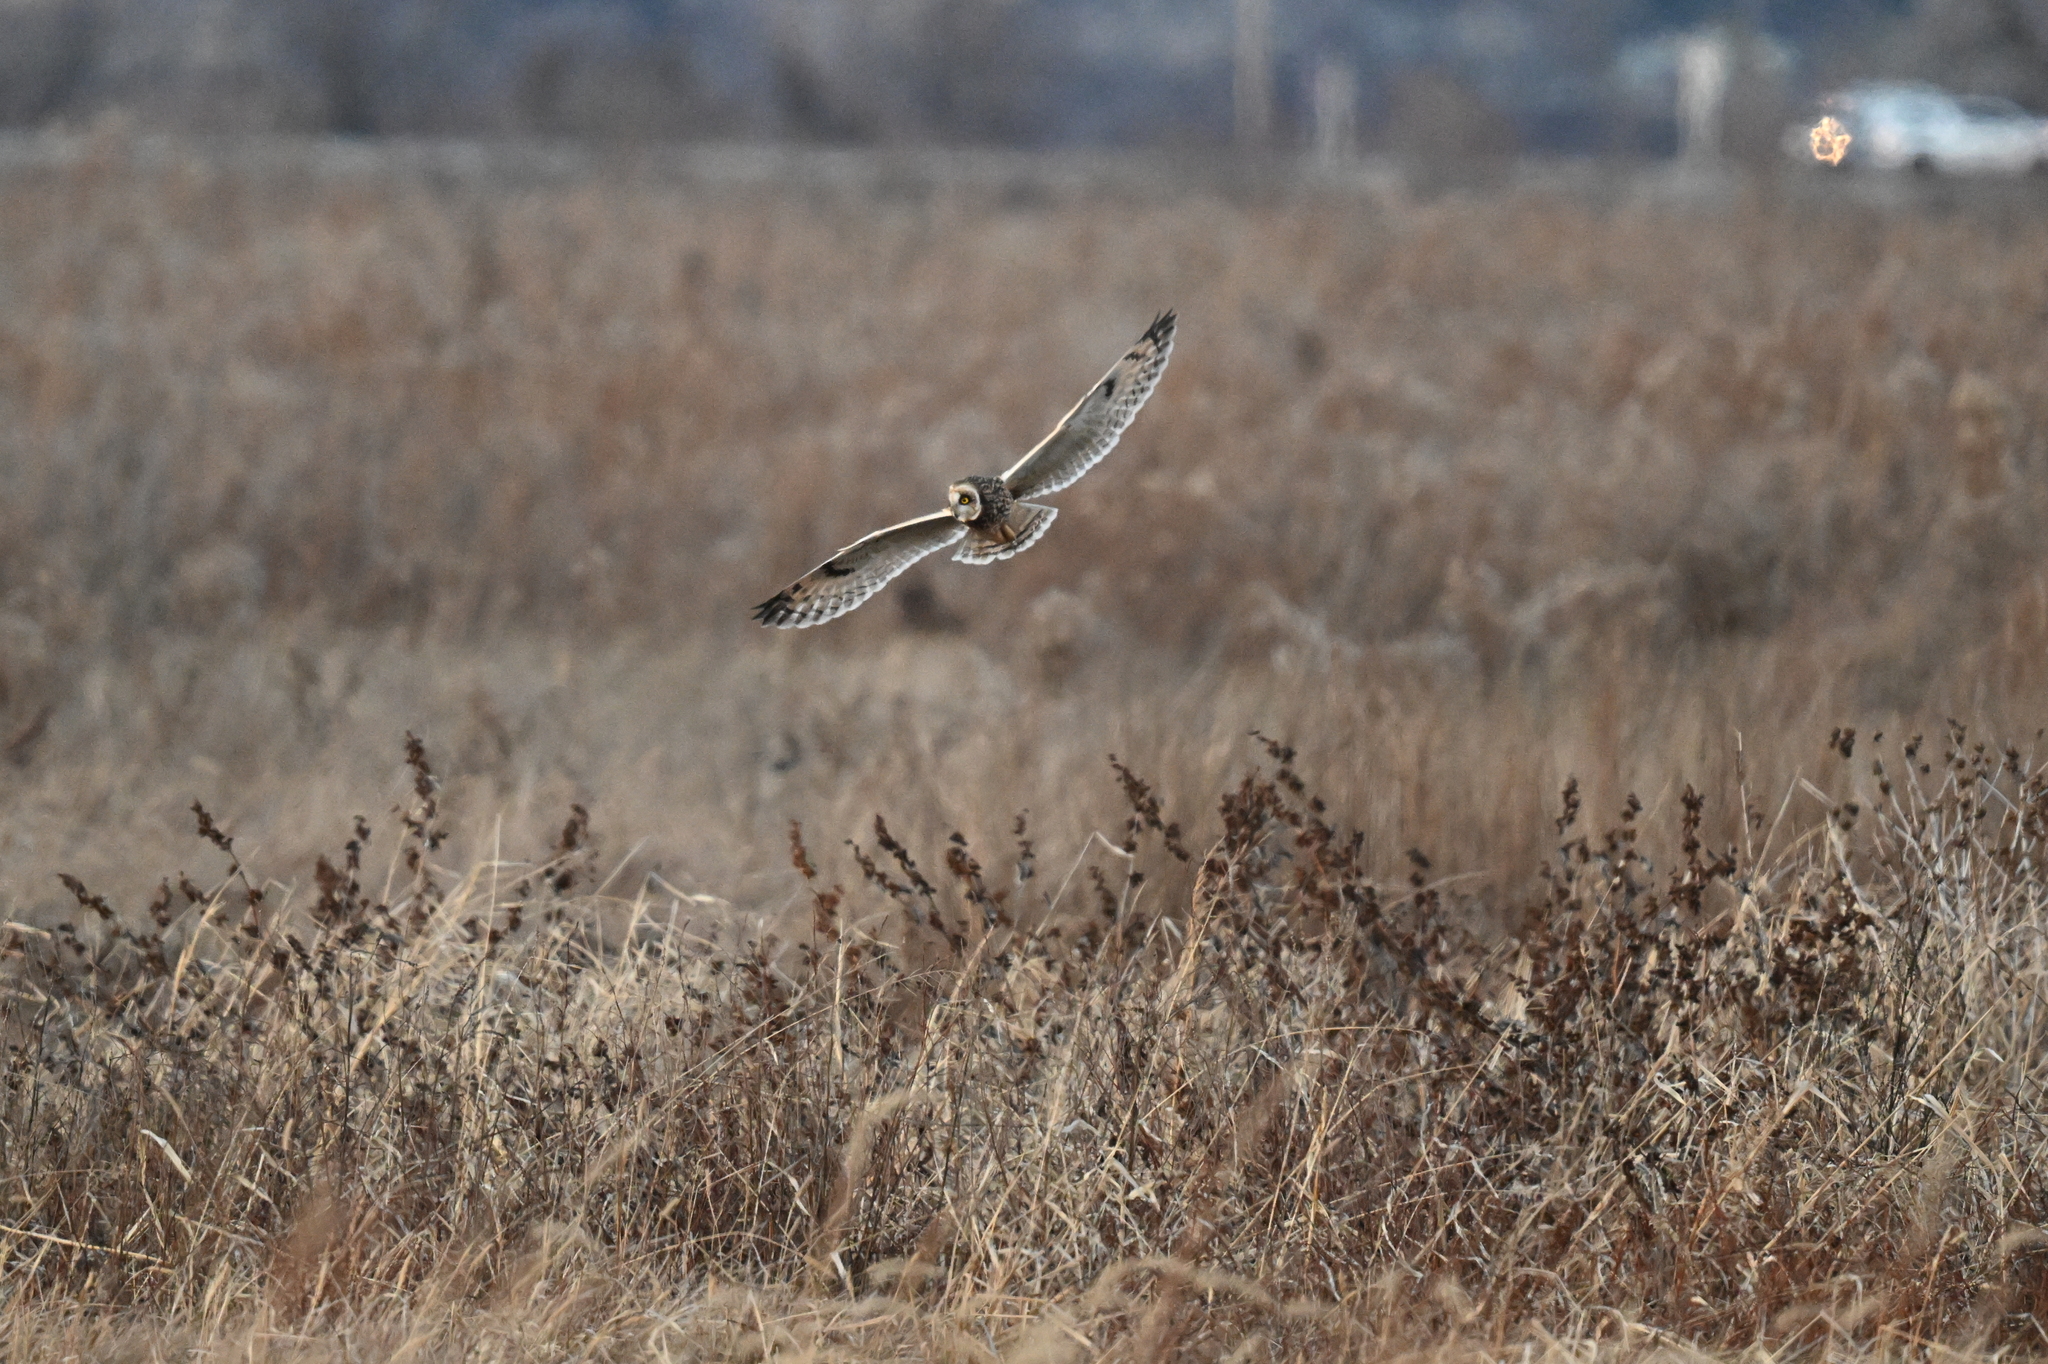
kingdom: Animalia
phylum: Chordata
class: Aves
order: Strigiformes
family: Strigidae
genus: Asio
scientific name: Asio flammeus
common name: Short-eared owl
